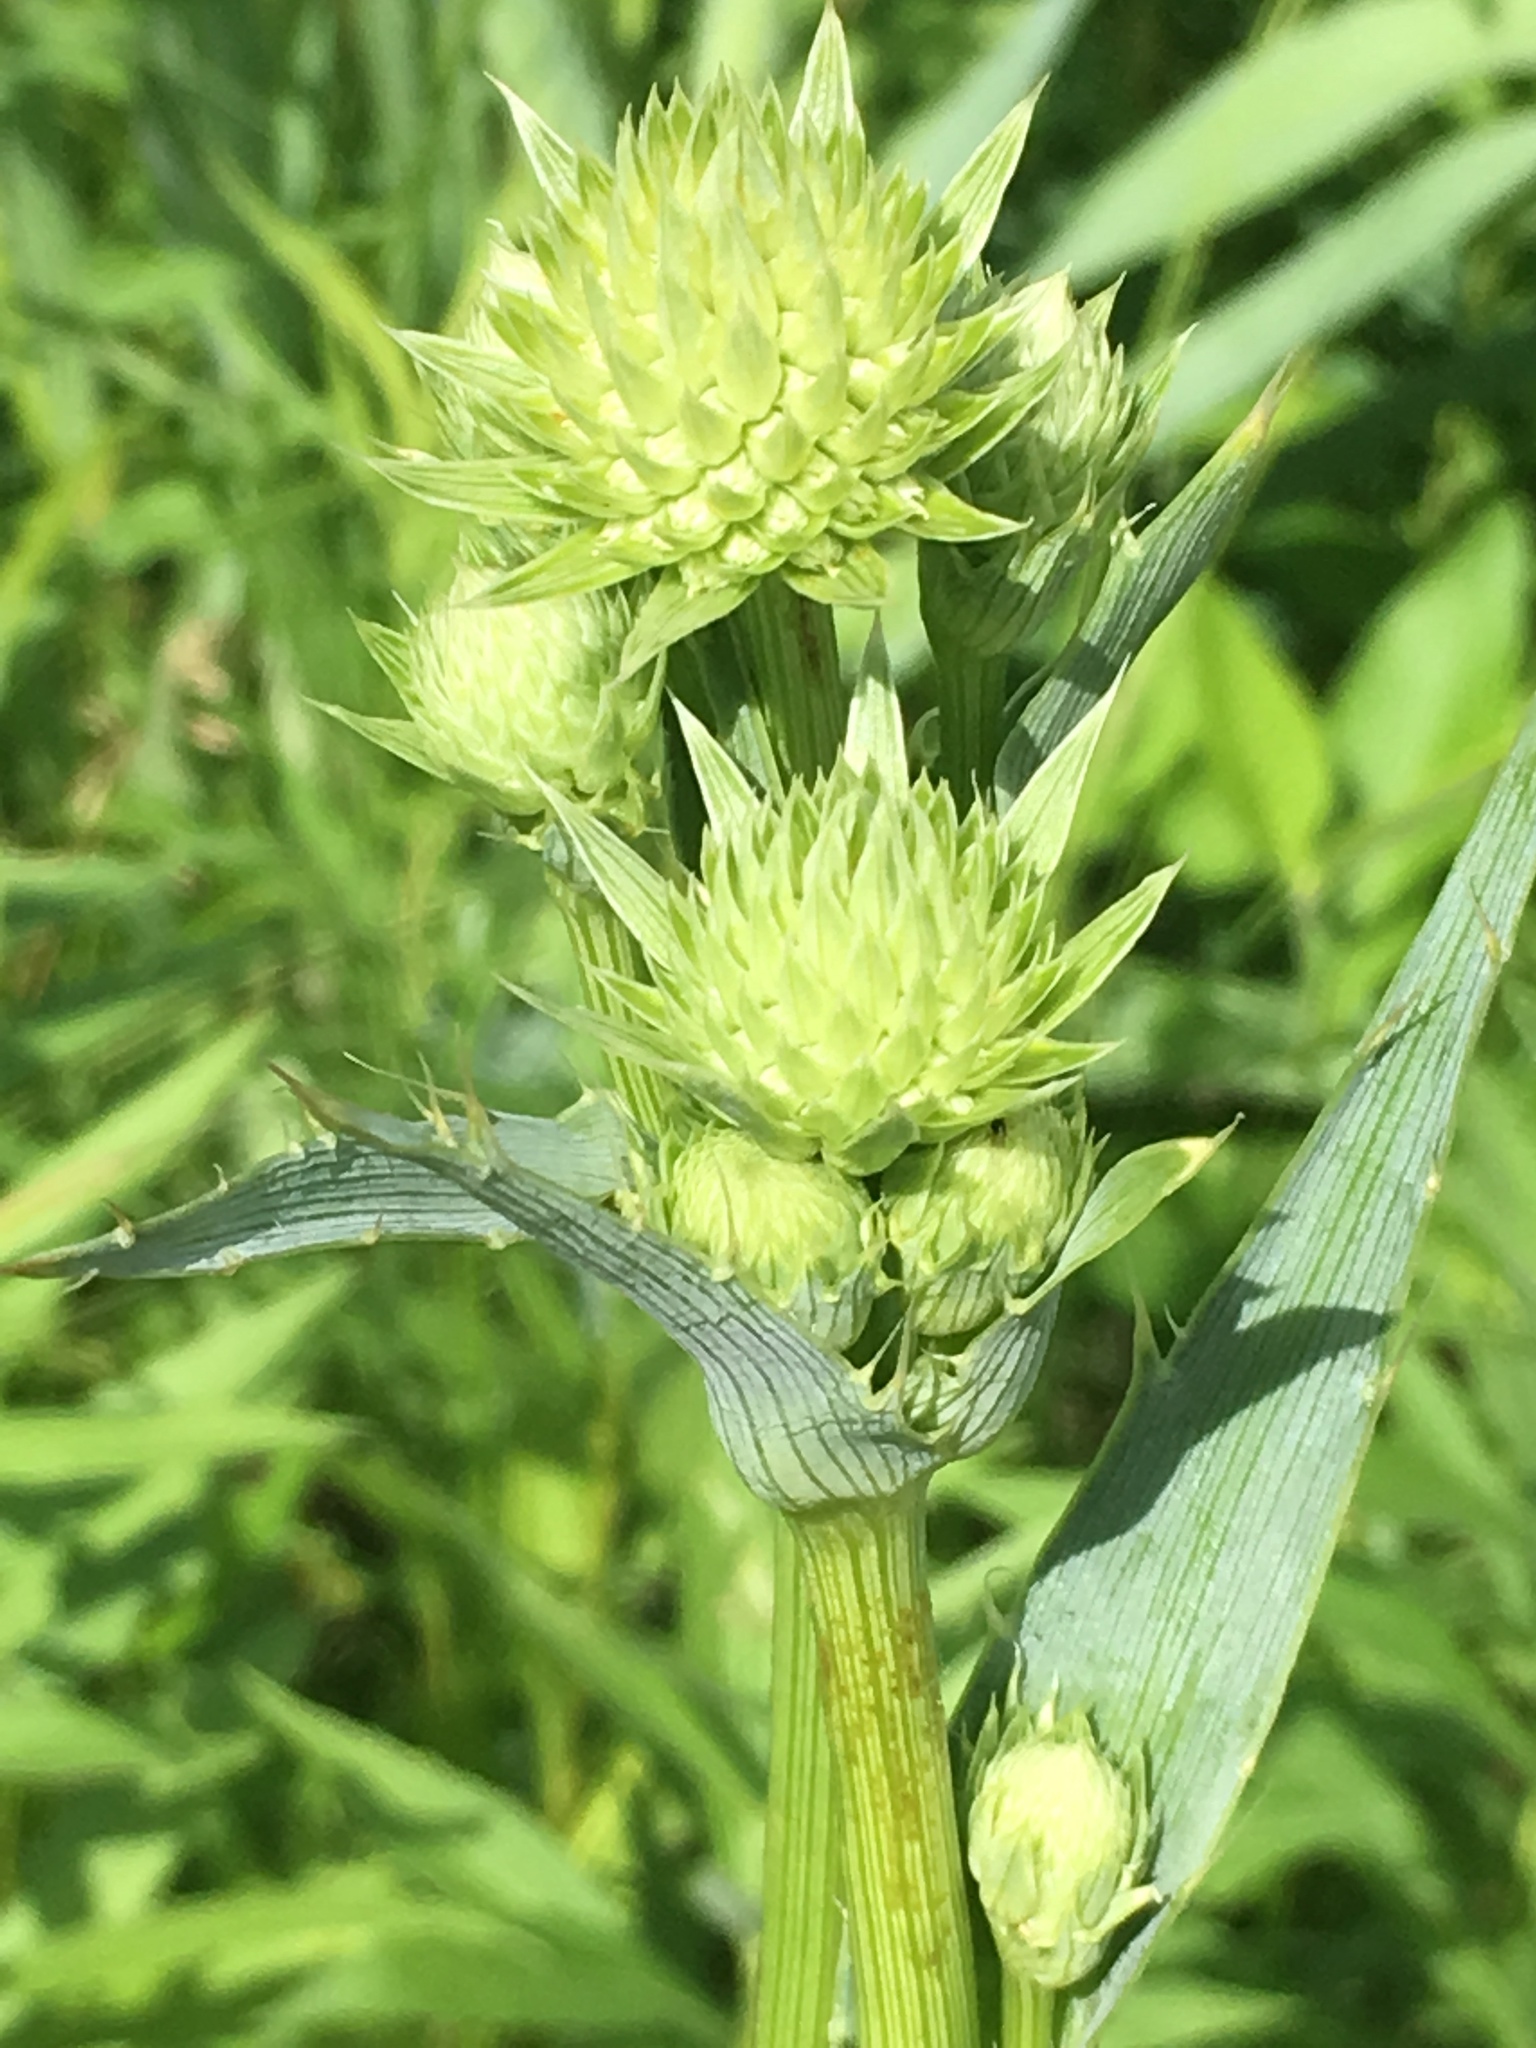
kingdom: Plantae
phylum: Tracheophyta
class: Magnoliopsida
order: Apiales
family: Apiaceae
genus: Eryngium
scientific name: Eryngium yuccifolium
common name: Button eryngo
